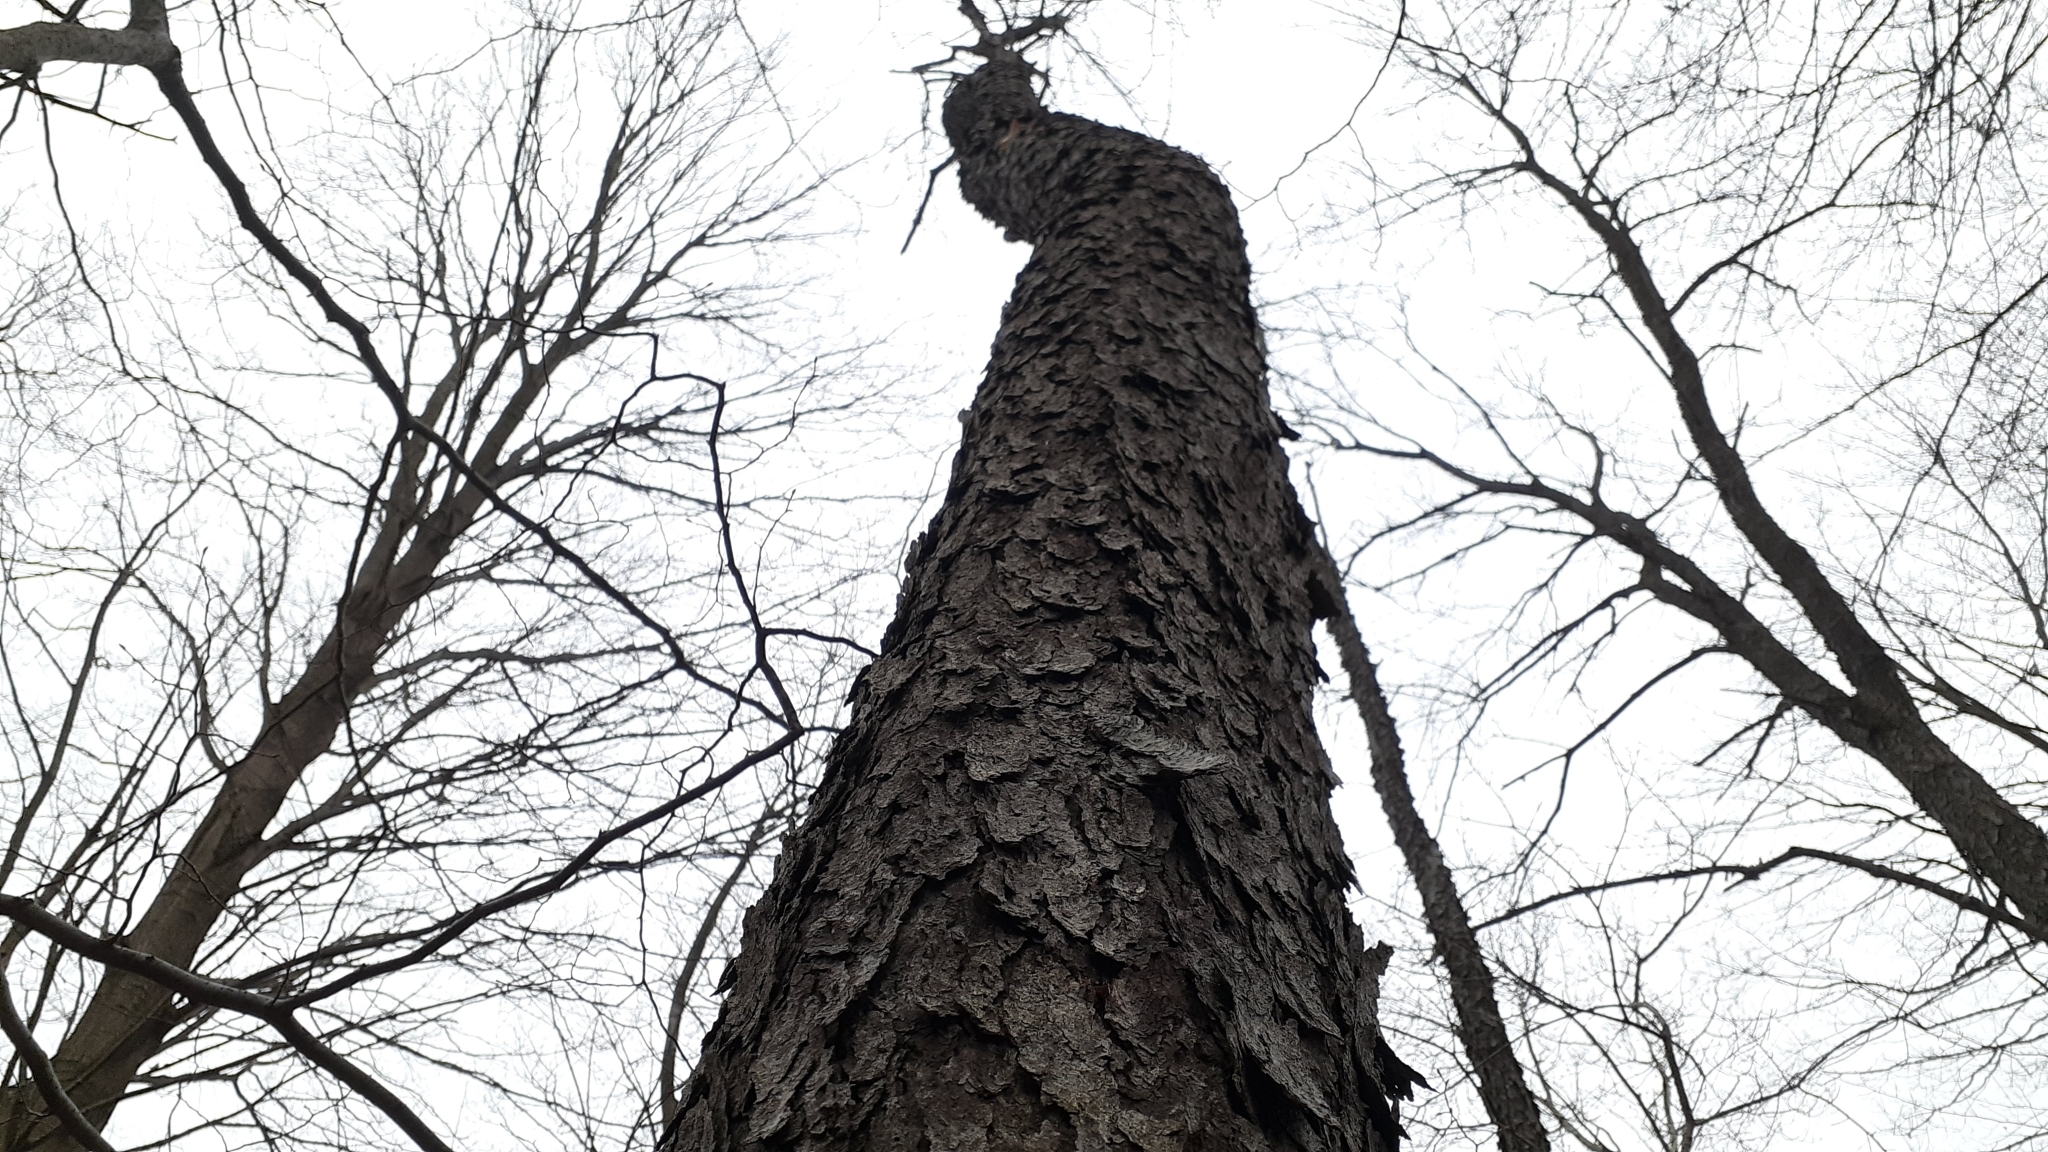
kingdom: Plantae
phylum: Tracheophyta
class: Magnoliopsida
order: Rosales
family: Rosaceae
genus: Prunus
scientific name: Prunus serotina
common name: Black cherry
